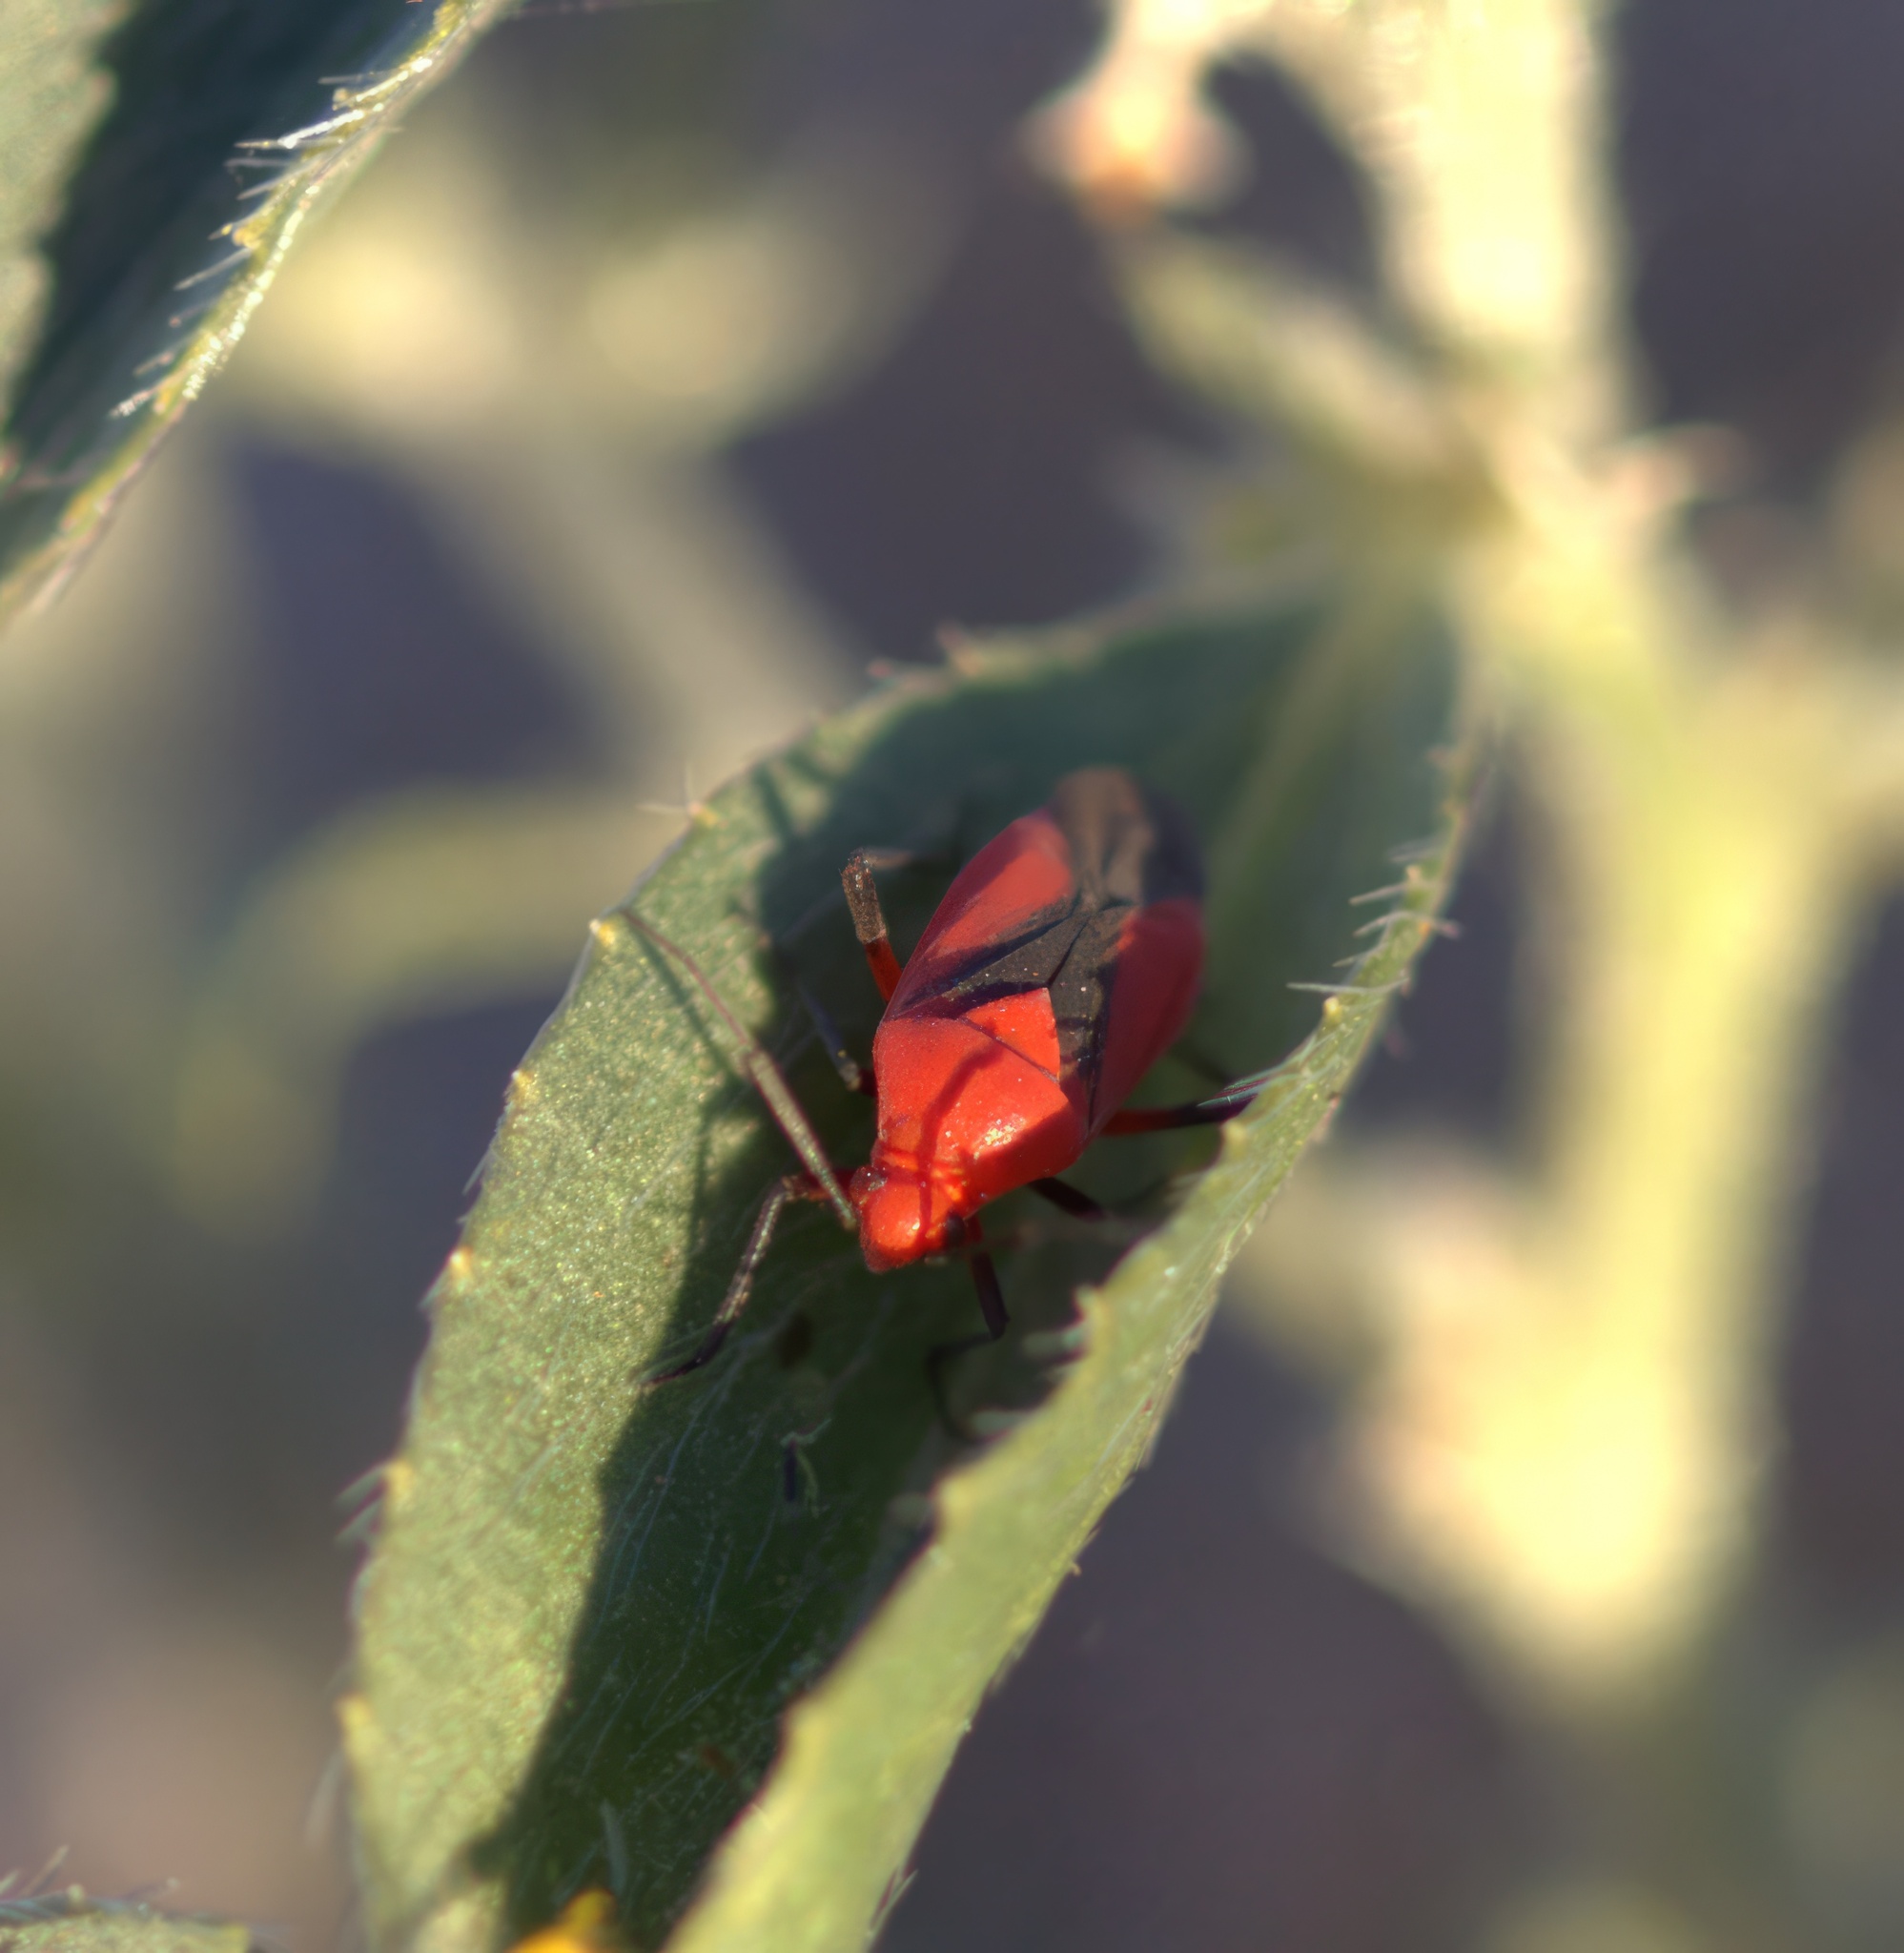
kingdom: Animalia
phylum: Arthropoda
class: Insecta
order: Hemiptera
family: Miridae
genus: Oncerometopus
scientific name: Oncerometopus nigriclavus
